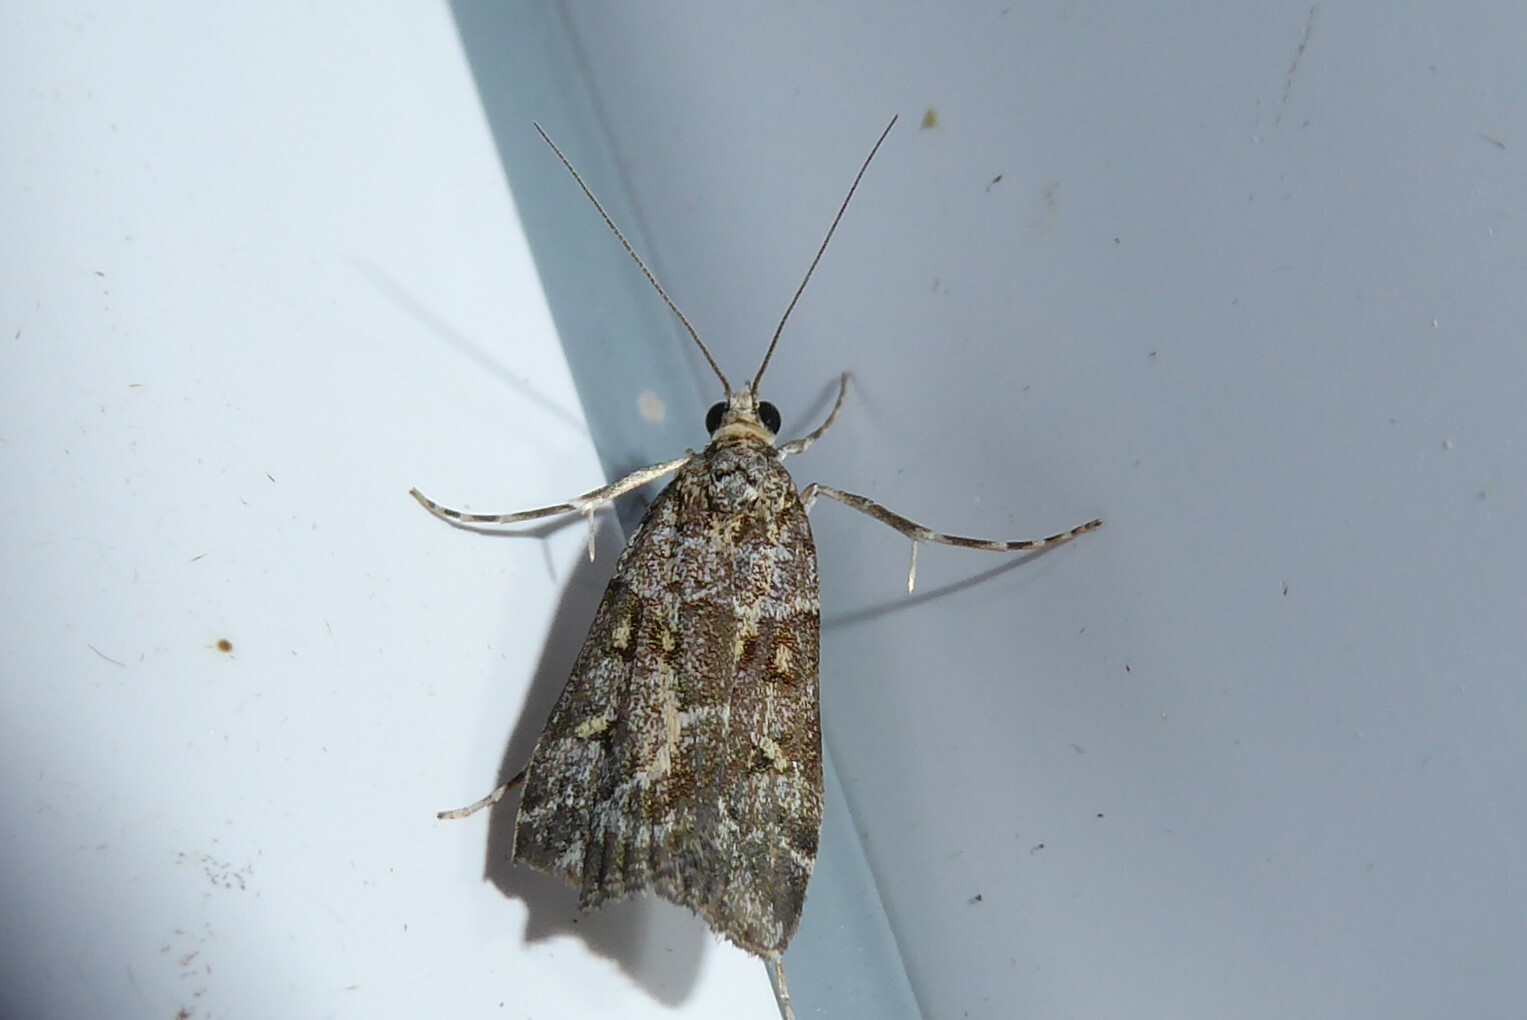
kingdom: Animalia
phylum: Arthropoda
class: Insecta
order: Lepidoptera
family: Crambidae
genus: Scoparia
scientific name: Scoparia tetracycla
